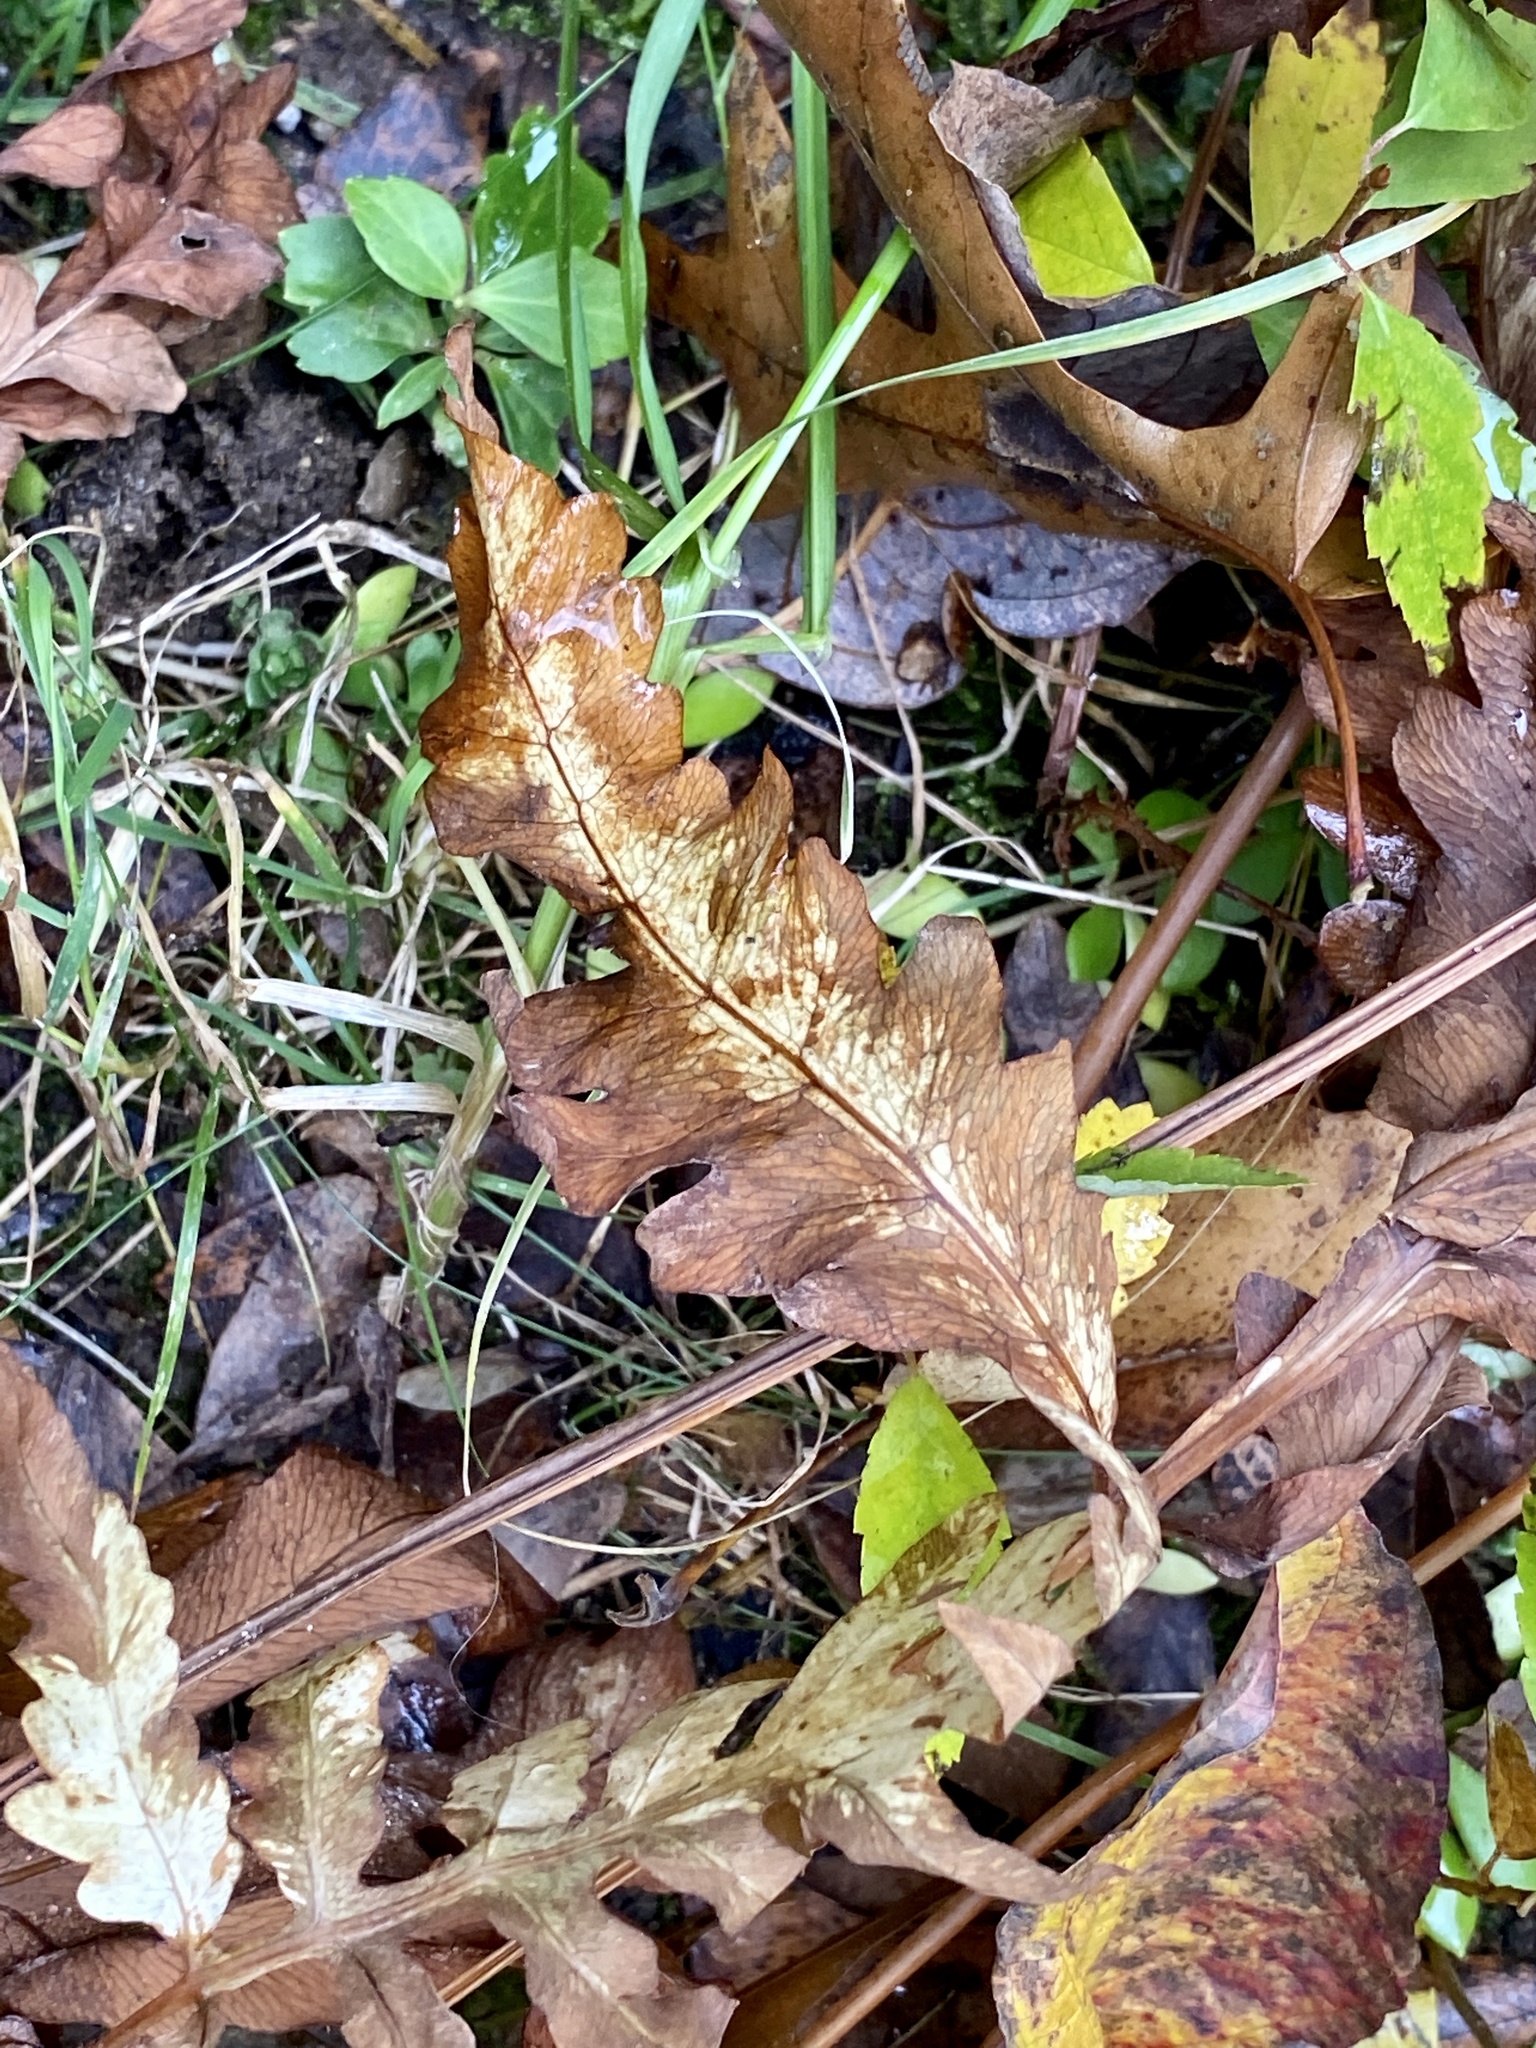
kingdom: Plantae
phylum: Tracheophyta
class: Polypodiopsida
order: Polypodiales
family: Onocleaceae
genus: Onoclea
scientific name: Onoclea sensibilis
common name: Sensitive fern
